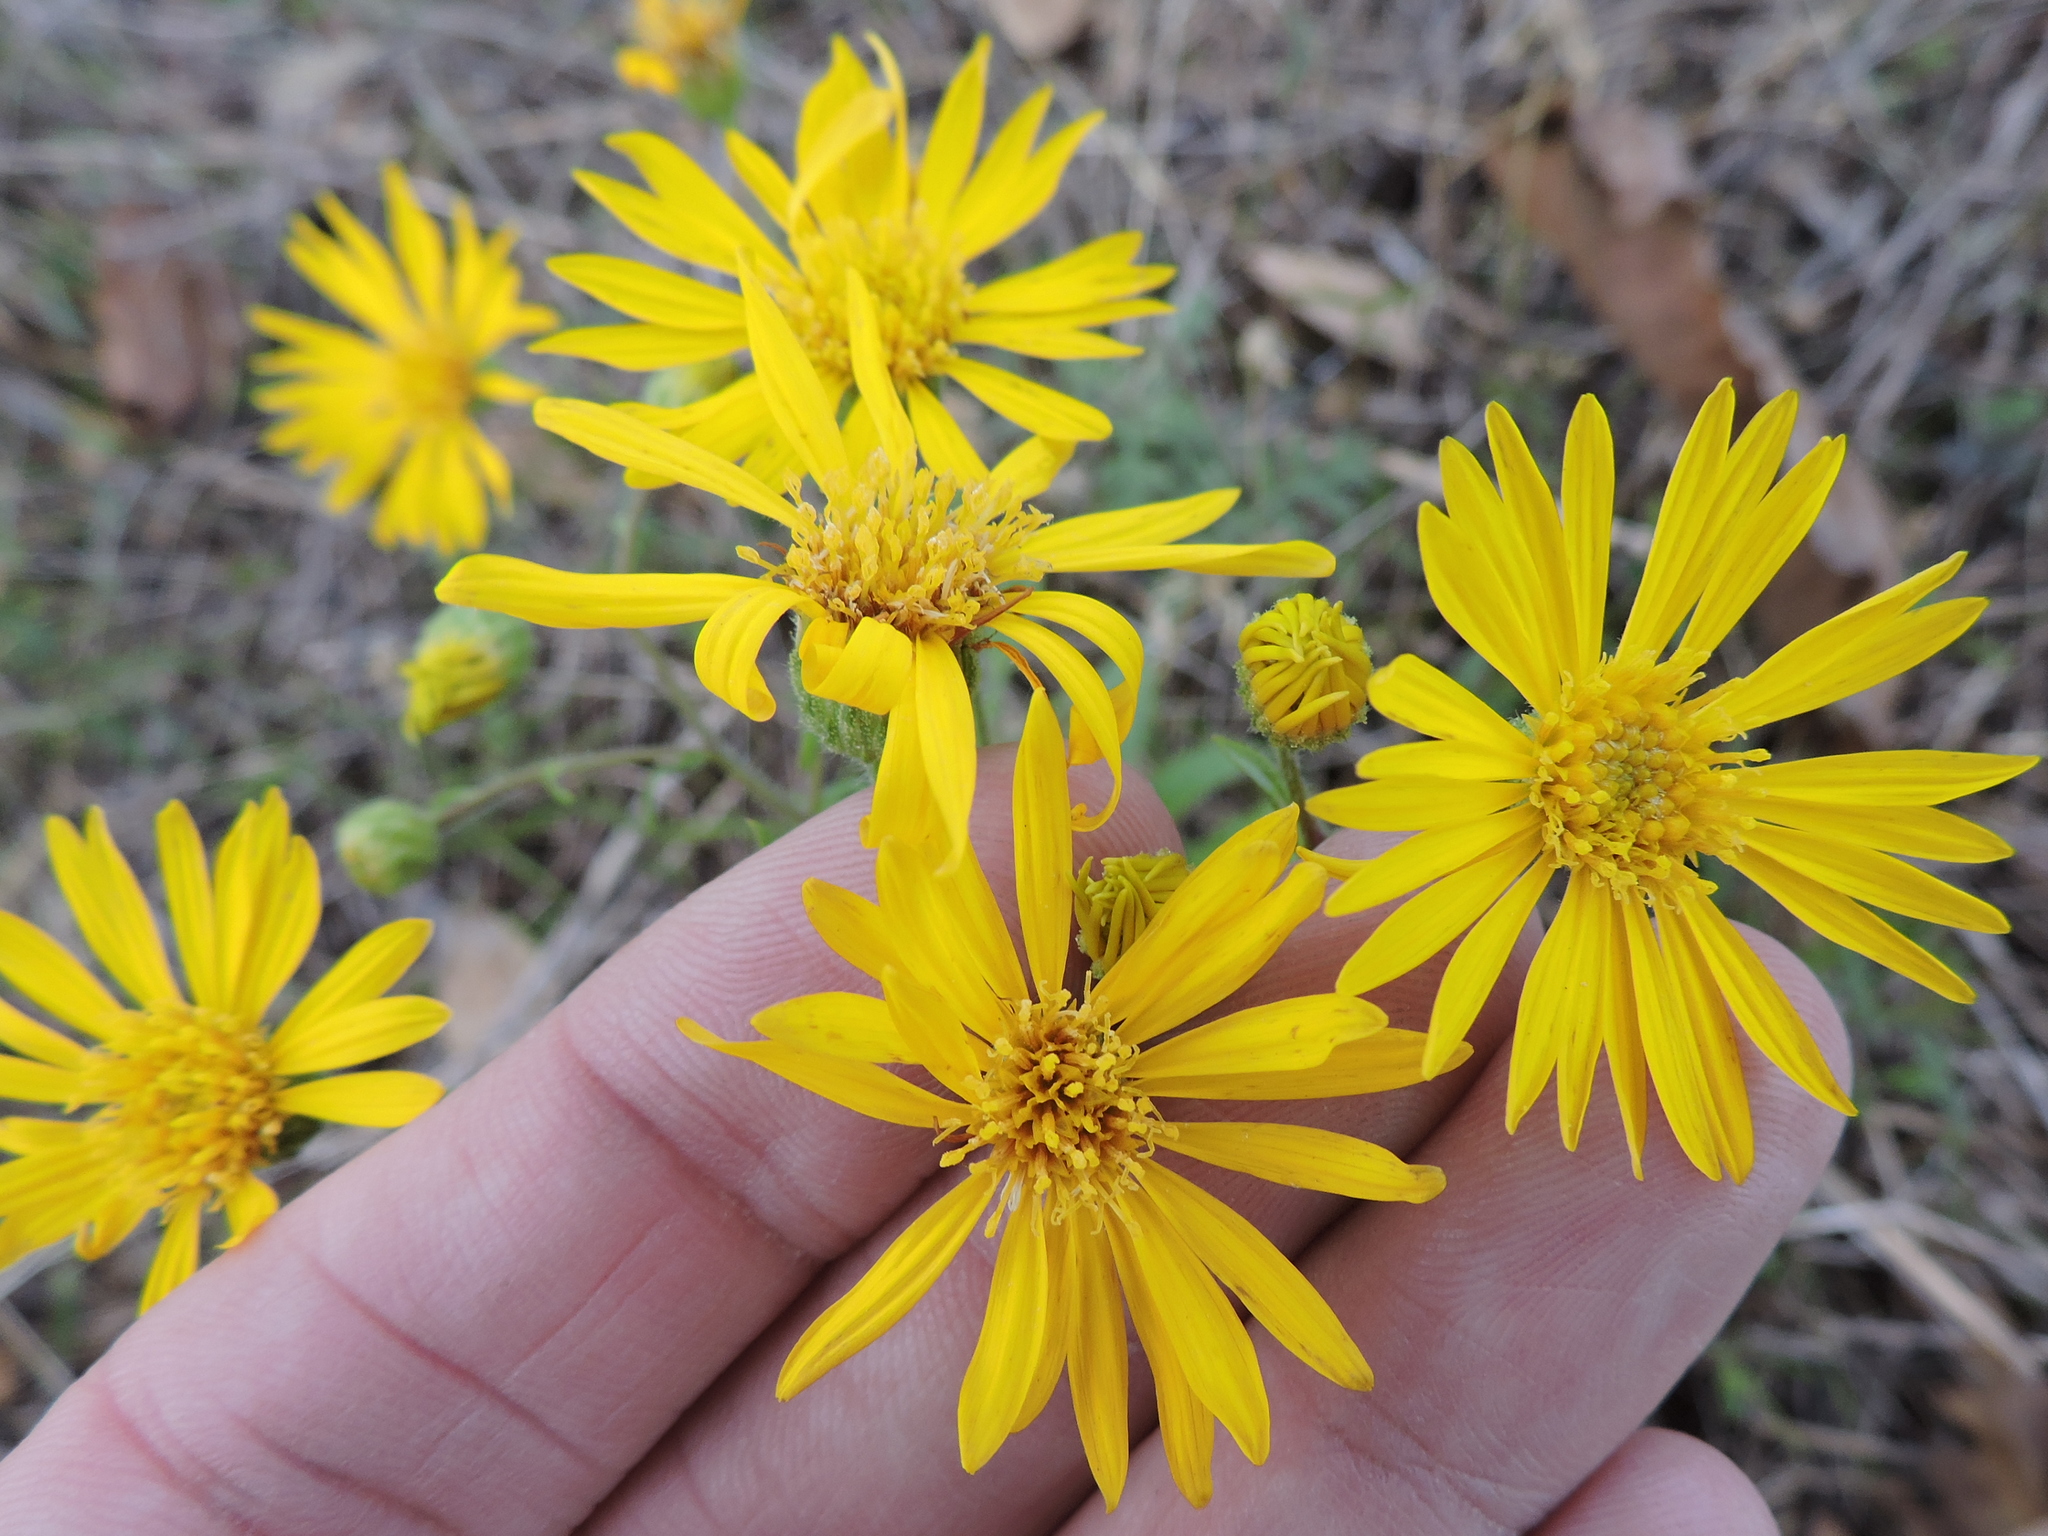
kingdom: Plantae
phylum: Tracheophyta
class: Magnoliopsida
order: Asterales
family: Asteraceae
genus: Heterotheca
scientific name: Heterotheca subaxillaris
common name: Camphorweed
